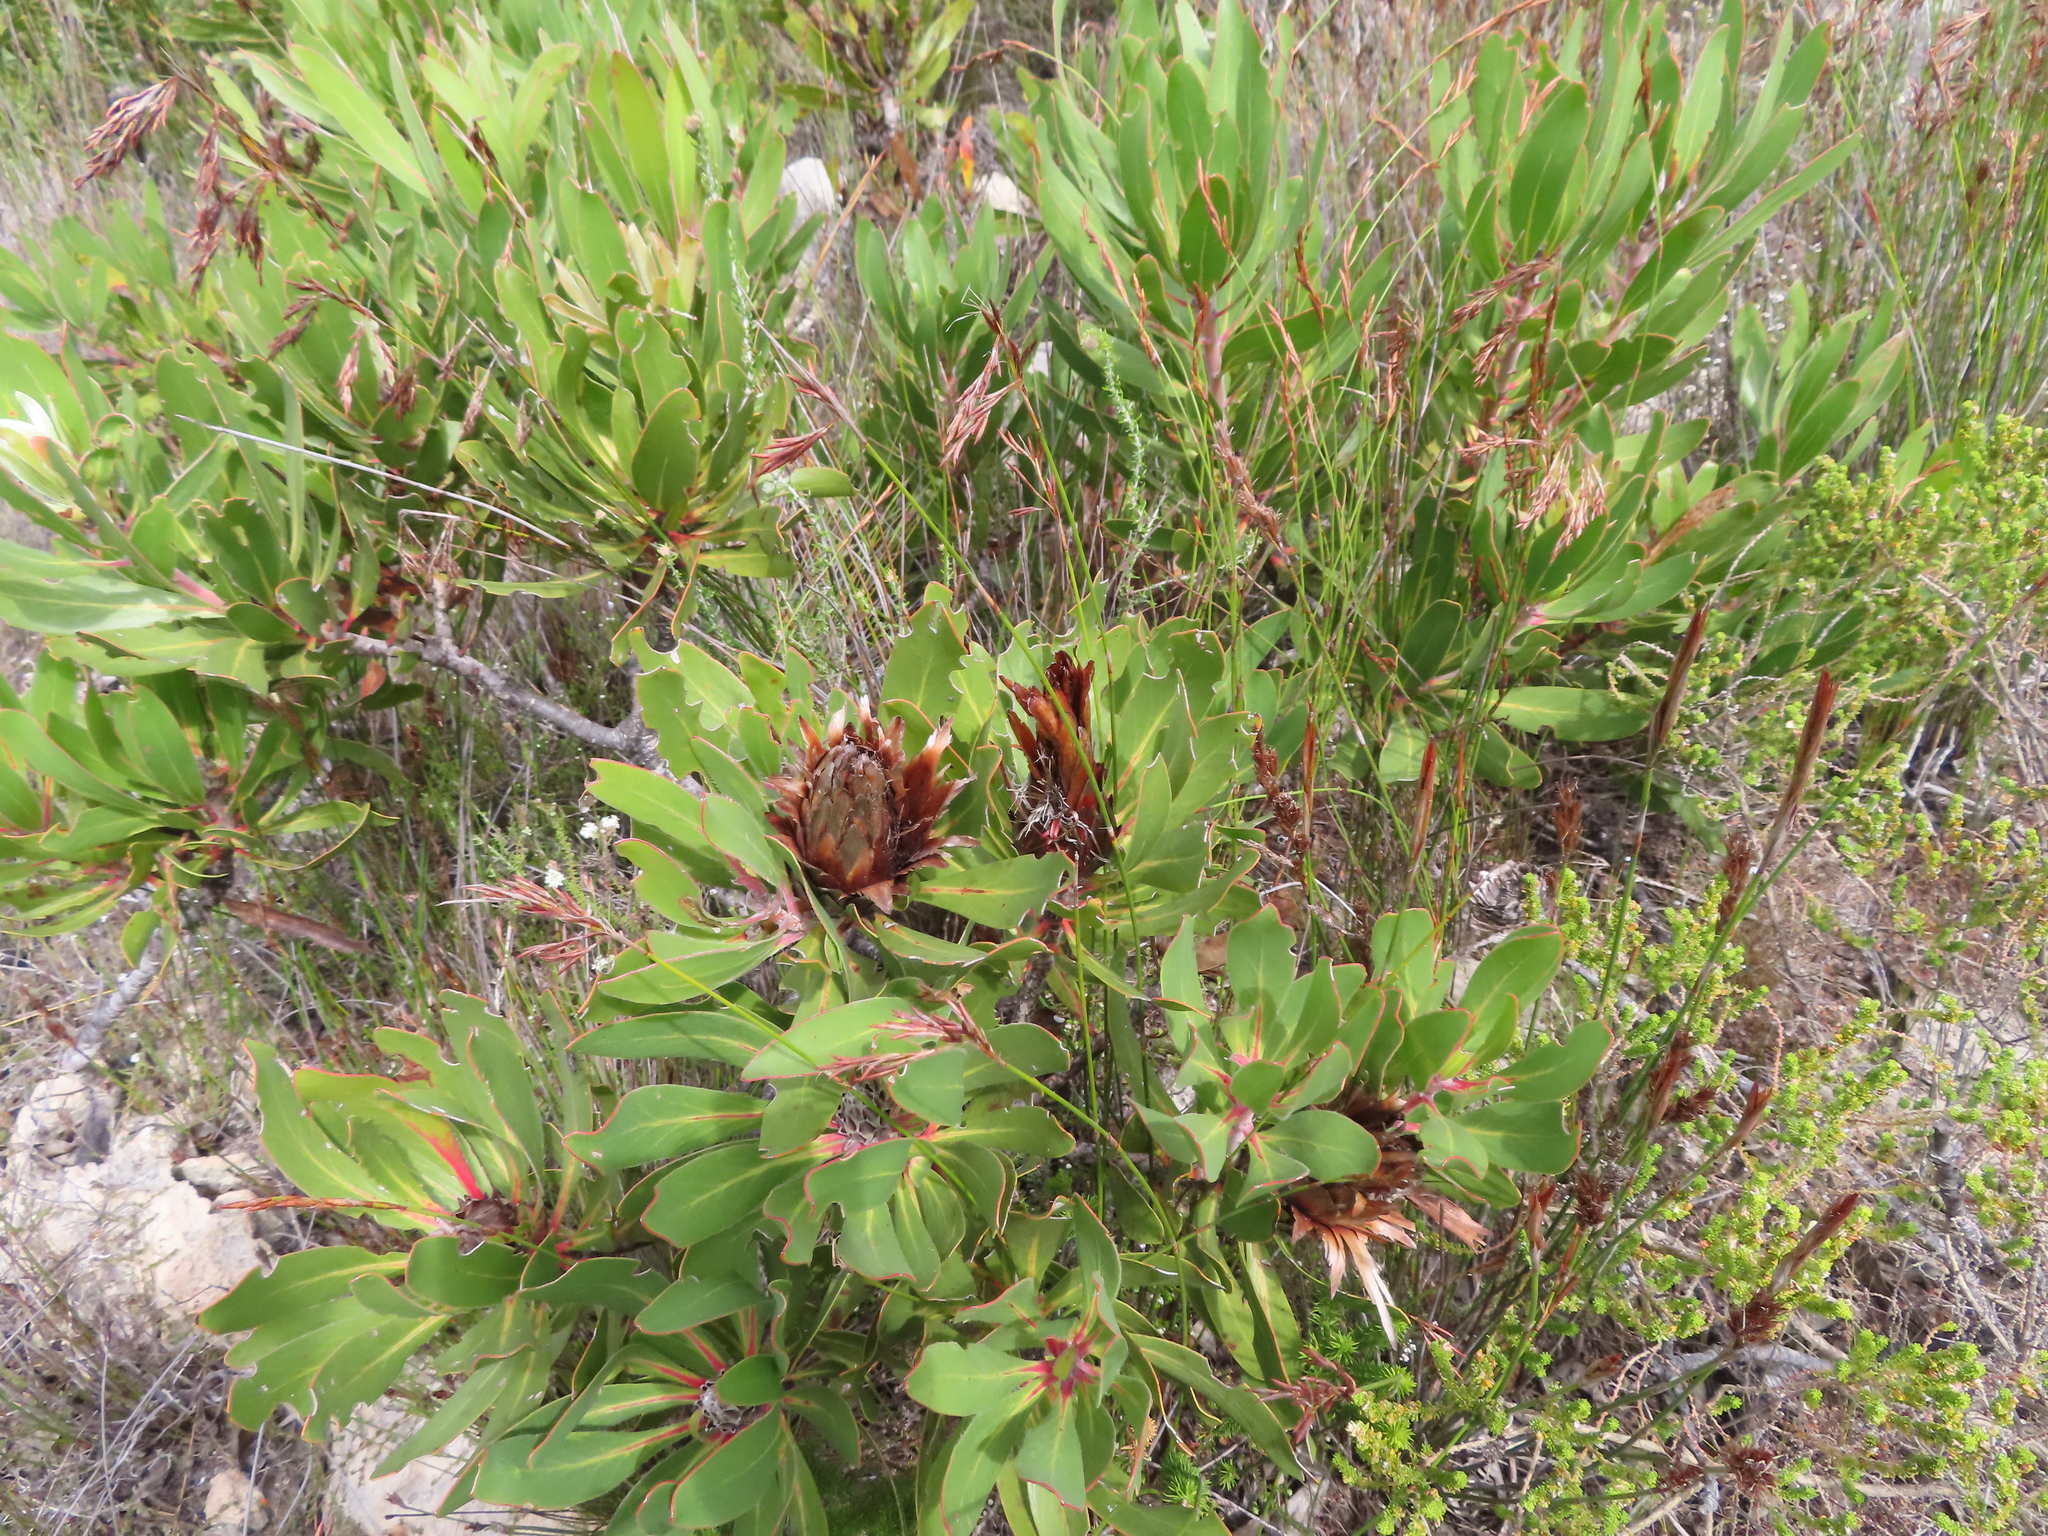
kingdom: Plantae
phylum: Tracheophyta
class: Magnoliopsida
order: Proteales
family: Proteaceae
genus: Protea
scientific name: Protea obtusifolia
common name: Bredasdorp sugarbush
